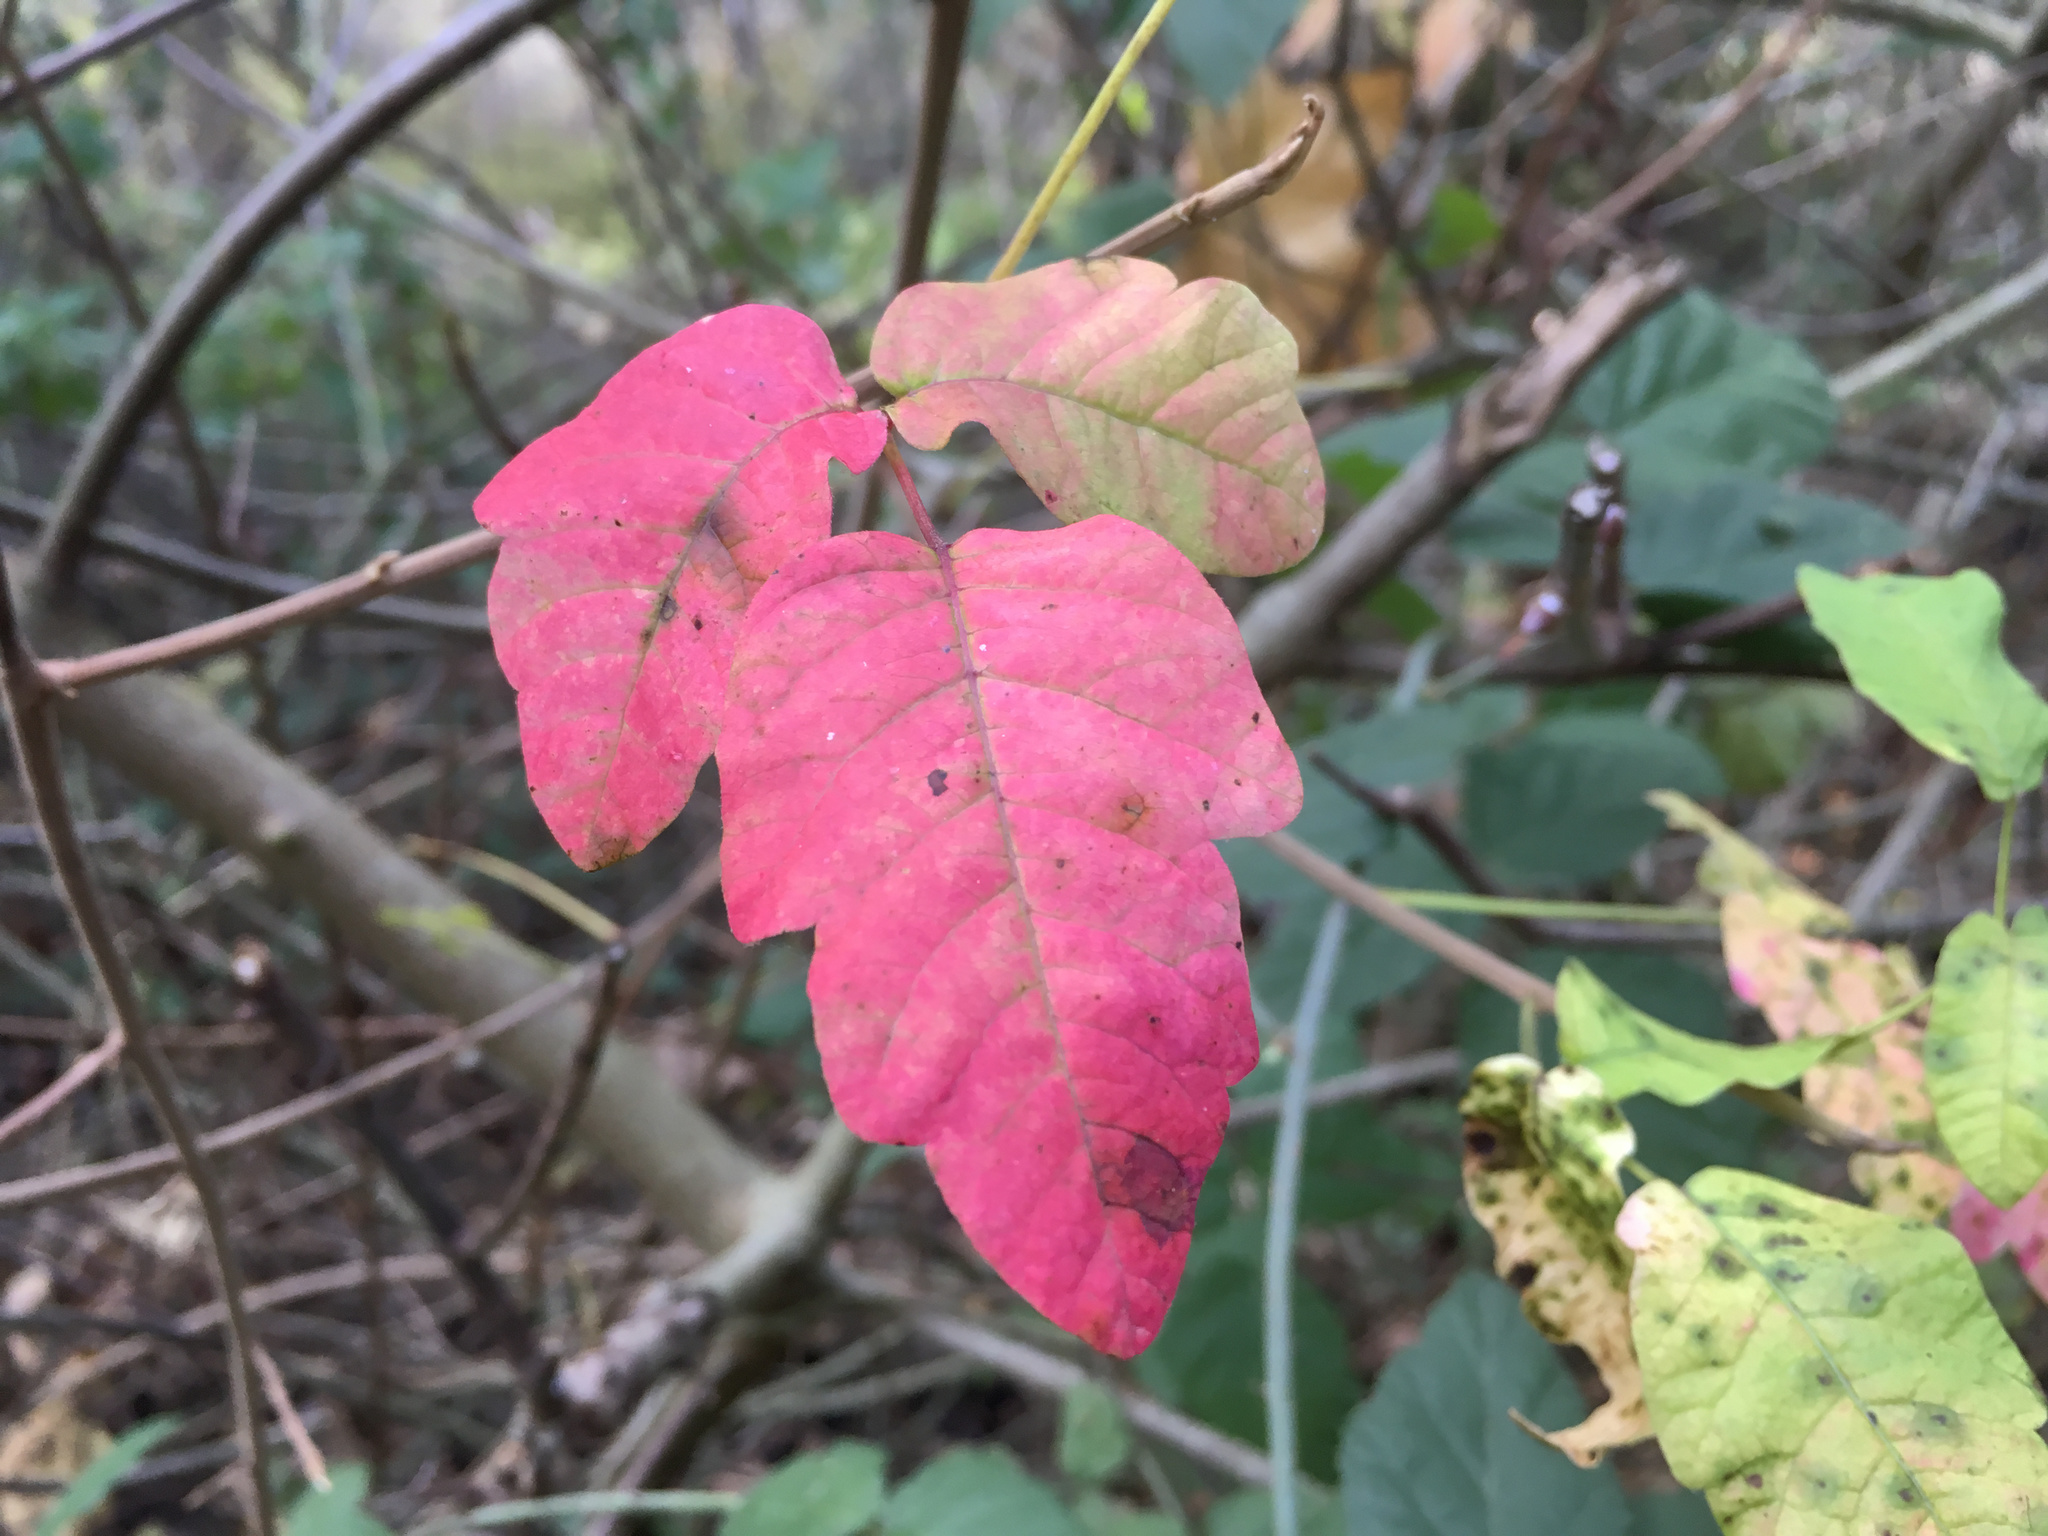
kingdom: Plantae
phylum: Tracheophyta
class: Magnoliopsida
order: Sapindales
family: Anacardiaceae
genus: Toxicodendron
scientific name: Toxicodendron diversilobum
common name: Pacific poison-oak
